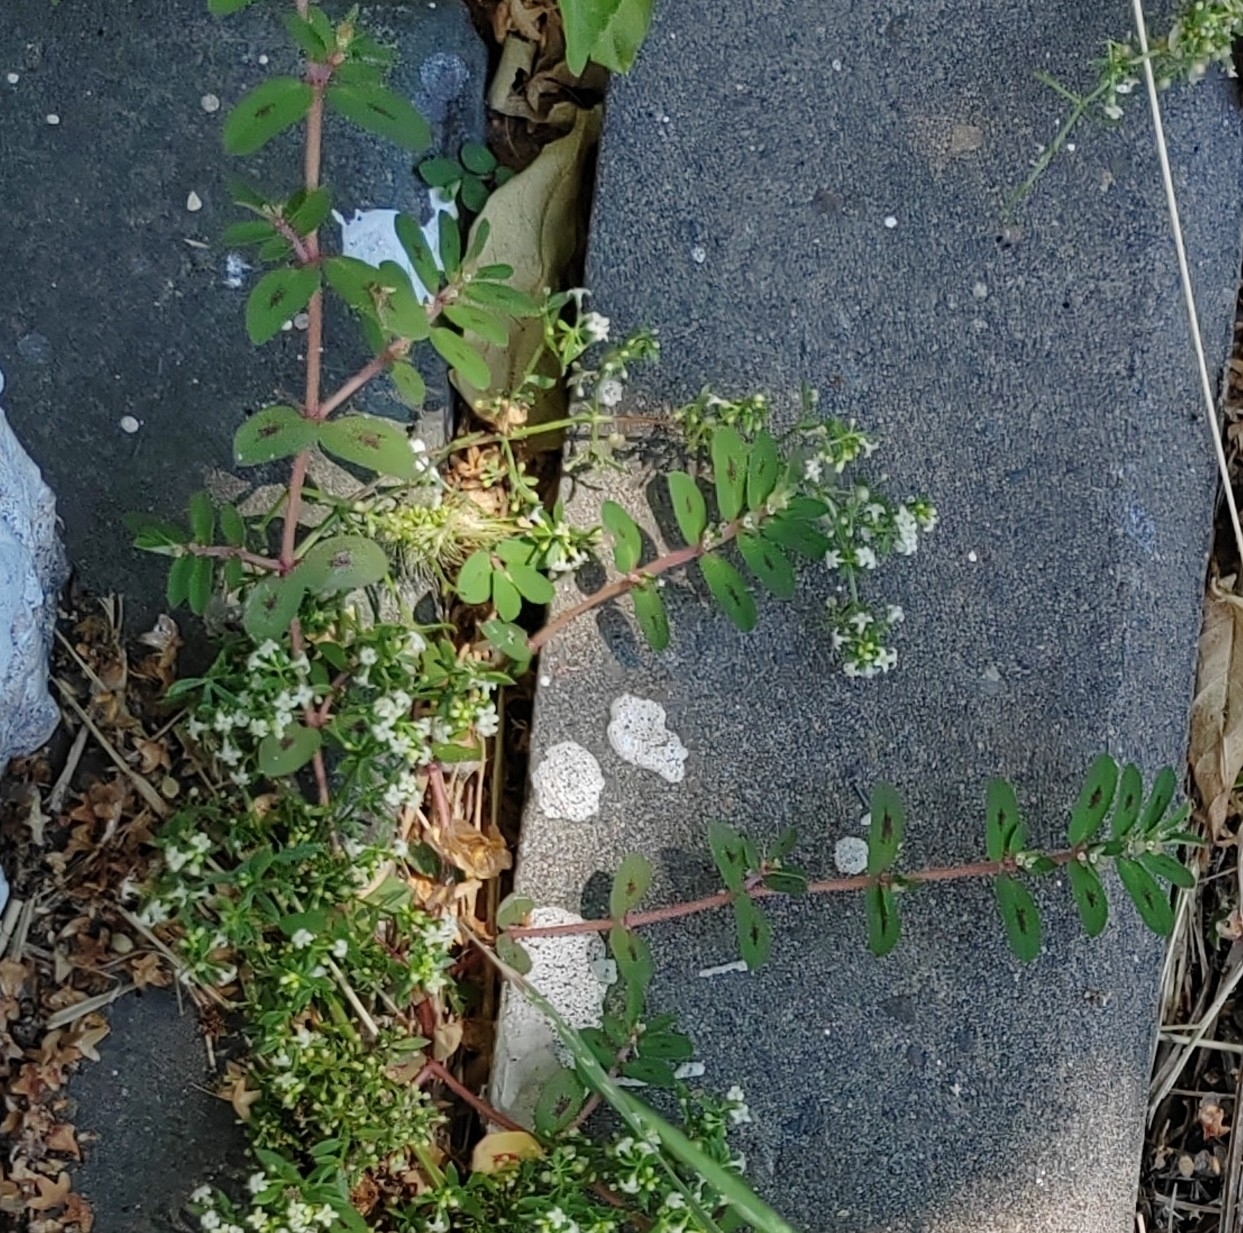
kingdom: Plantae
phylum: Tracheophyta
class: Magnoliopsida
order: Gentianales
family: Rubiaceae
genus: Galium
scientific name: Galium humifusum
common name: Spreading bedstraw
